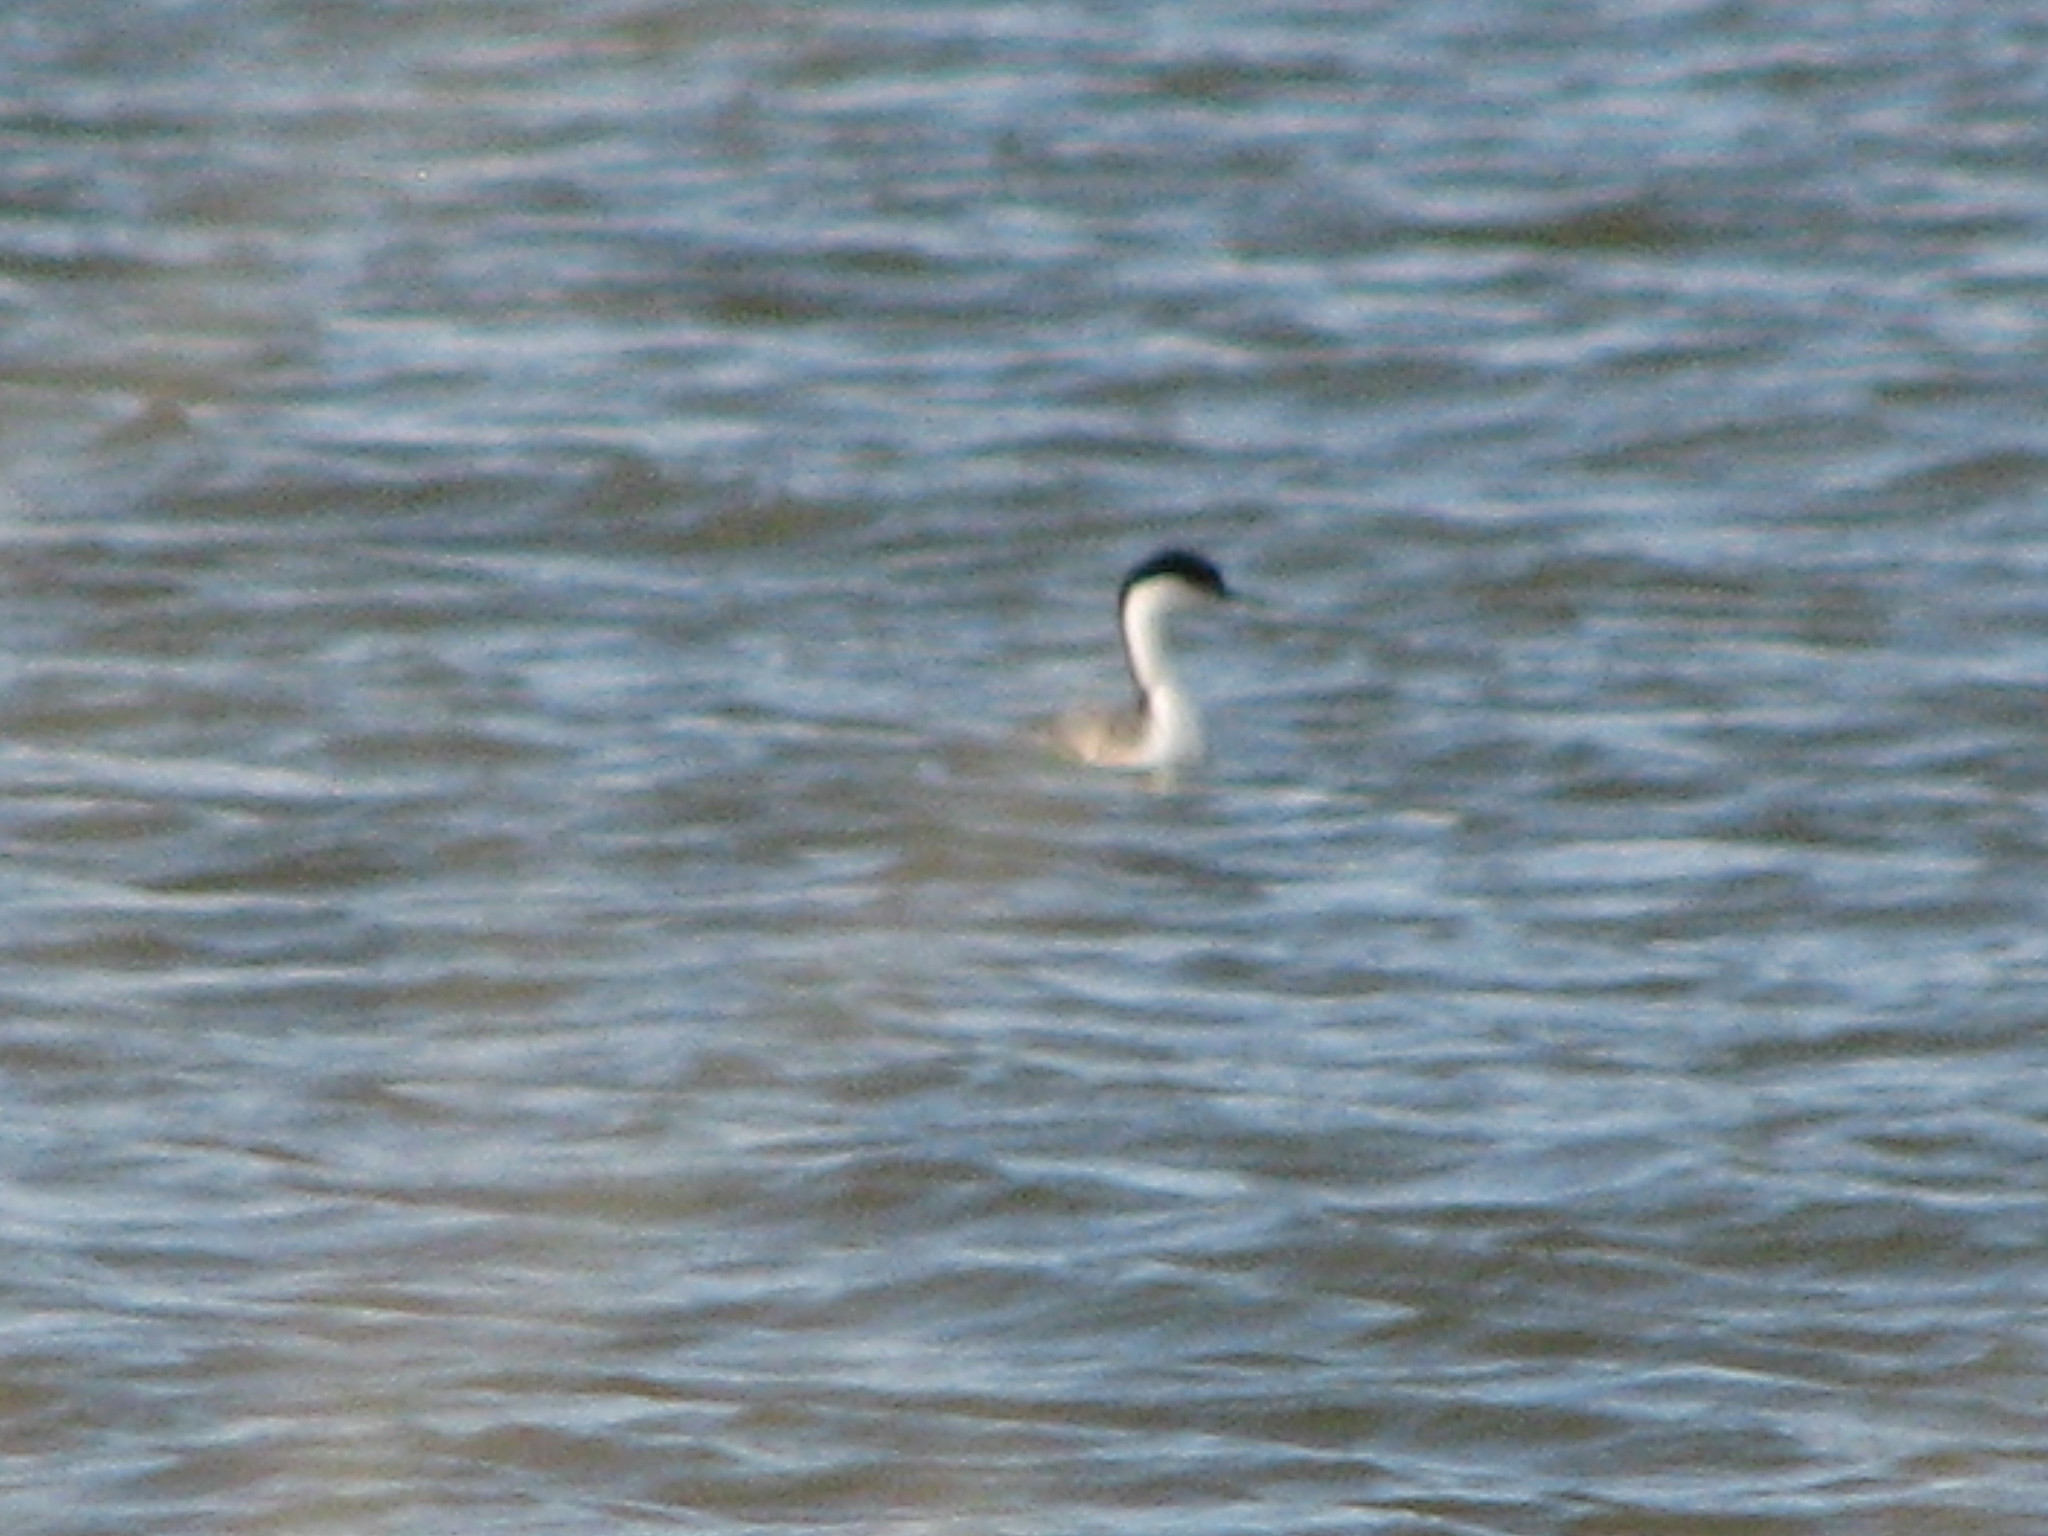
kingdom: Animalia
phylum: Chordata
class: Aves
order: Podicipediformes
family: Podicipedidae
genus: Aechmophorus
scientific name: Aechmophorus occidentalis
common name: Western grebe
